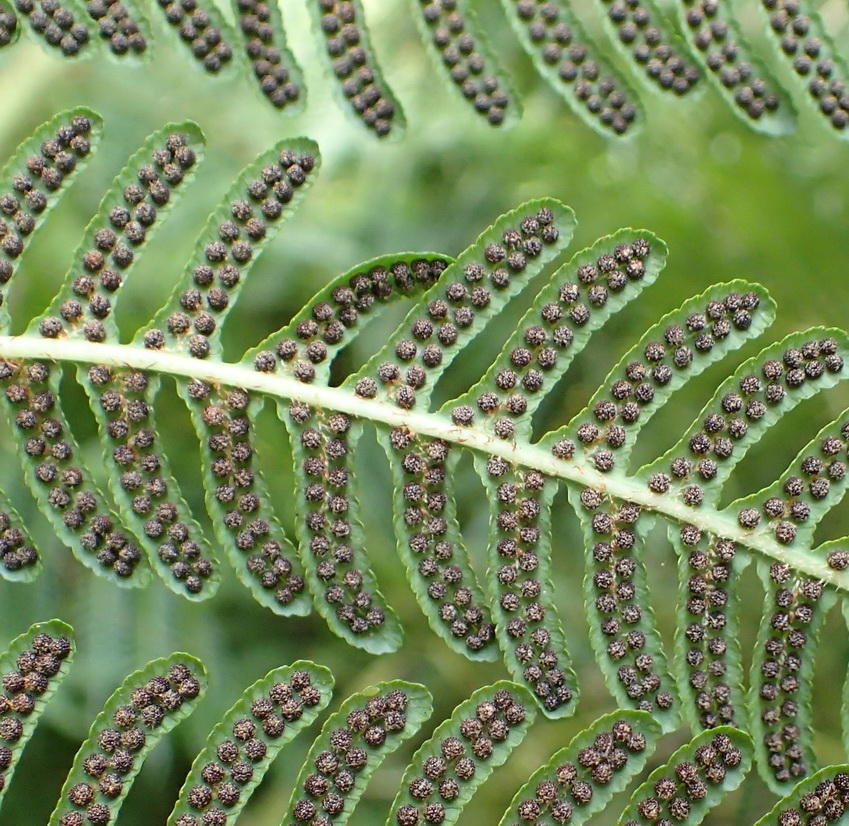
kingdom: Plantae
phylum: Tracheophyta
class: Polypodiopsida
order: Cyatheales
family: Cyatheaceae
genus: Sphaeropteris
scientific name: Sphaeropteris cooperi
